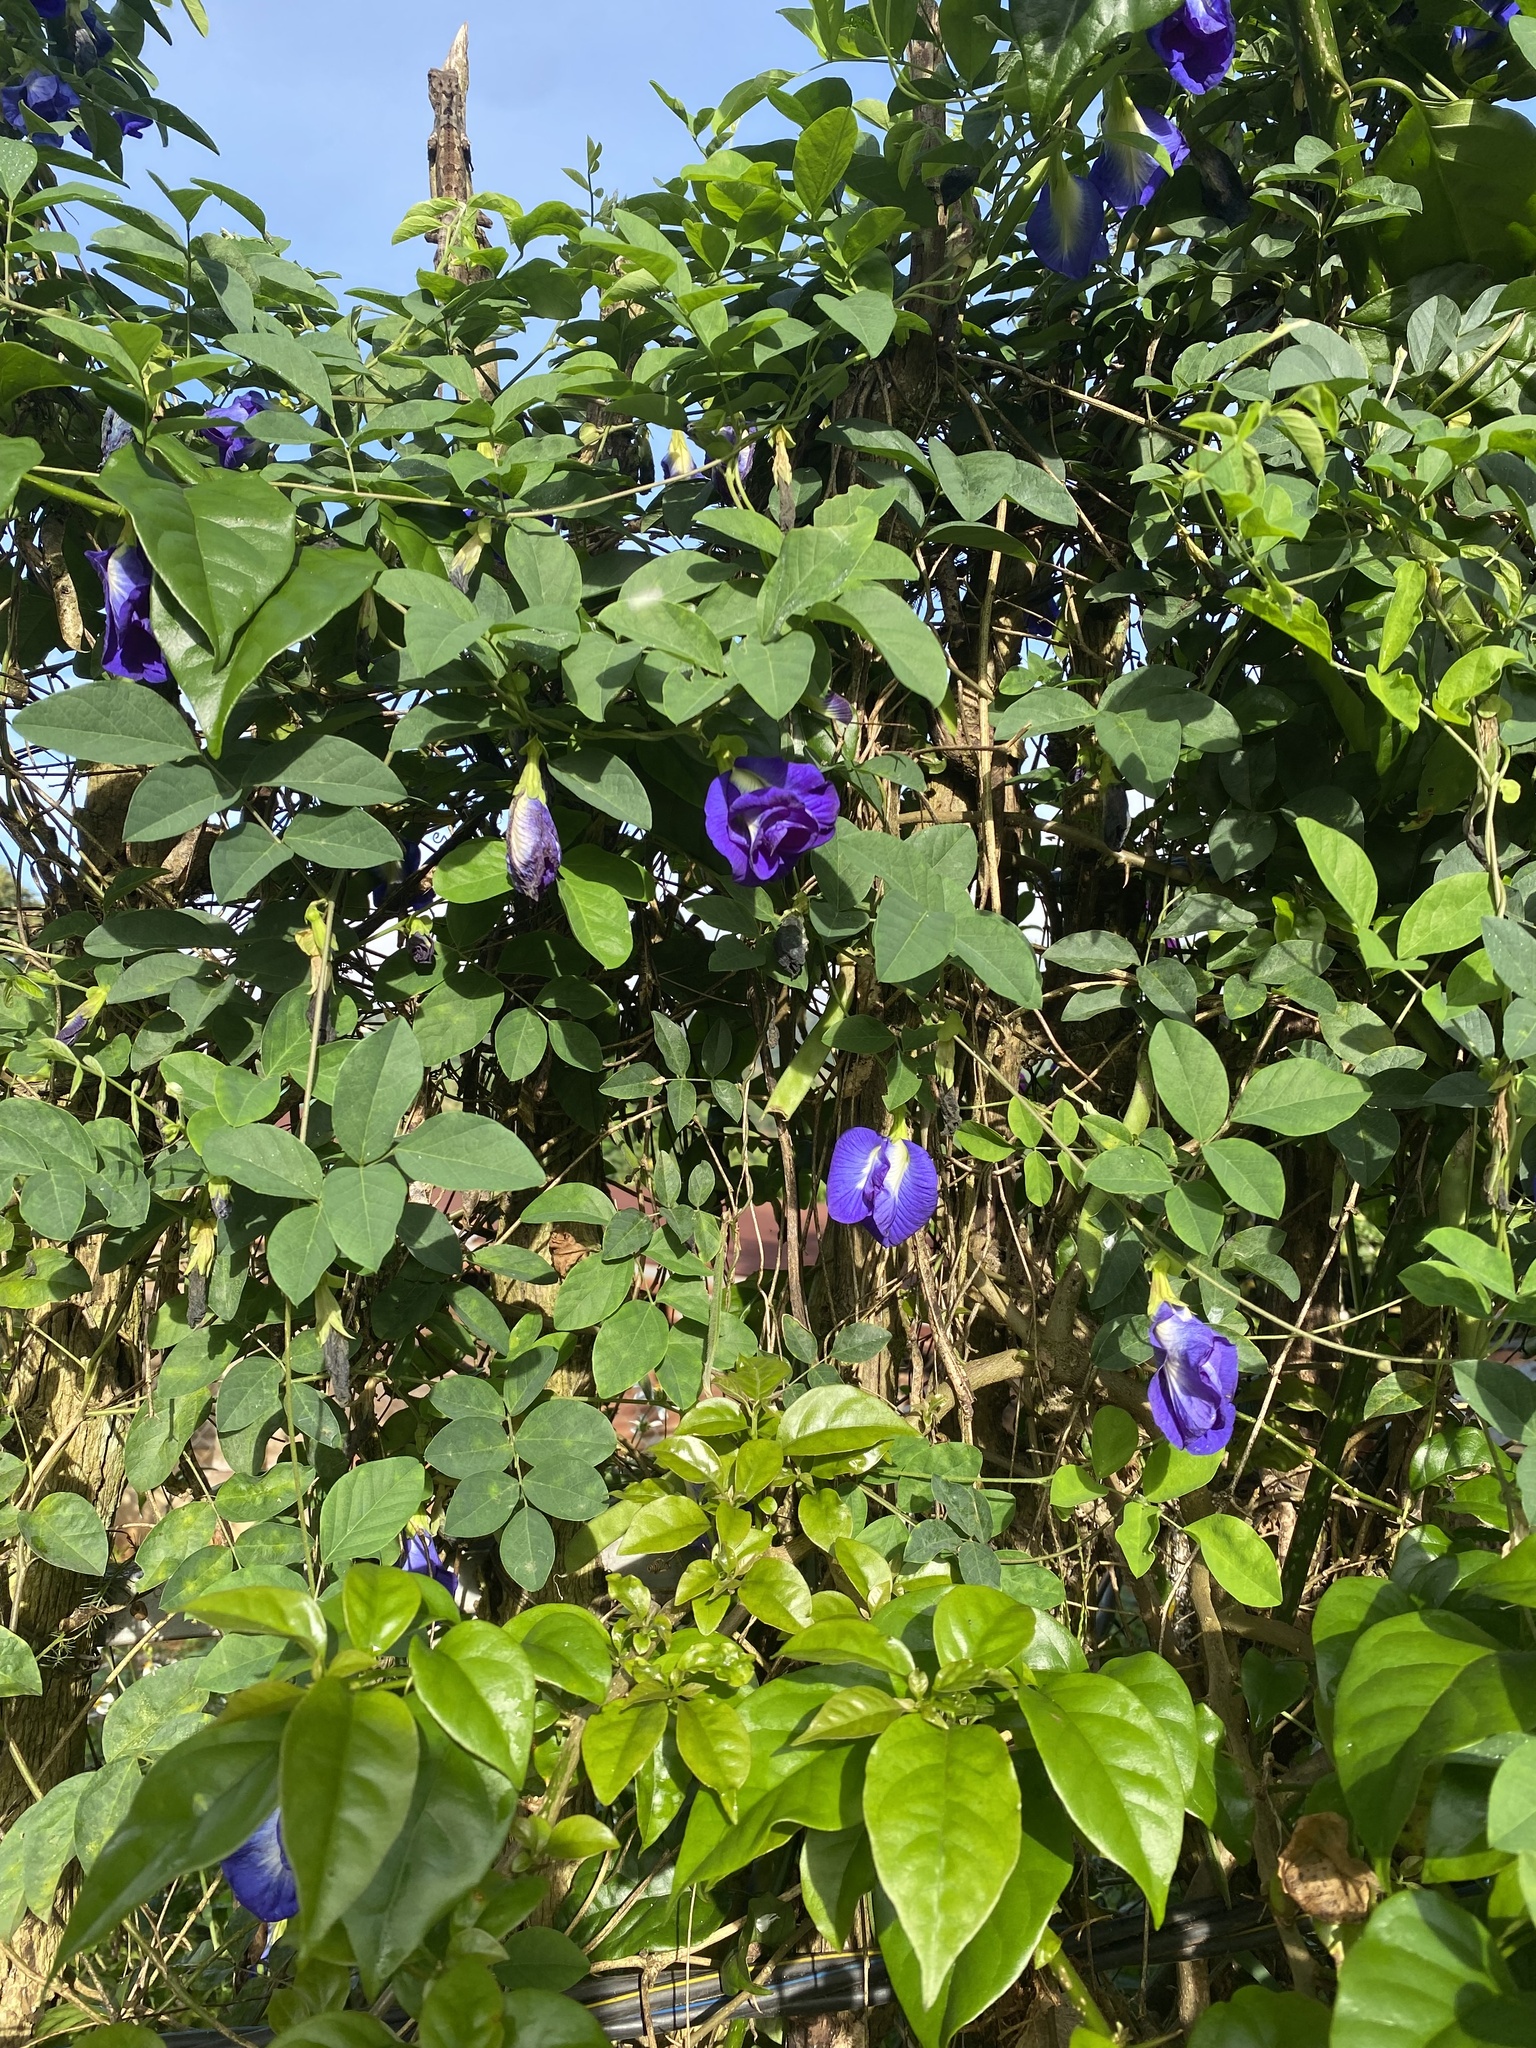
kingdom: Plantae
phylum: Tracheophyta
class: Magnoliopsida
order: Fabales
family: Fabaceae
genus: Clitoria
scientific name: Clitoria ternatea
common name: Asian pigeonwings
